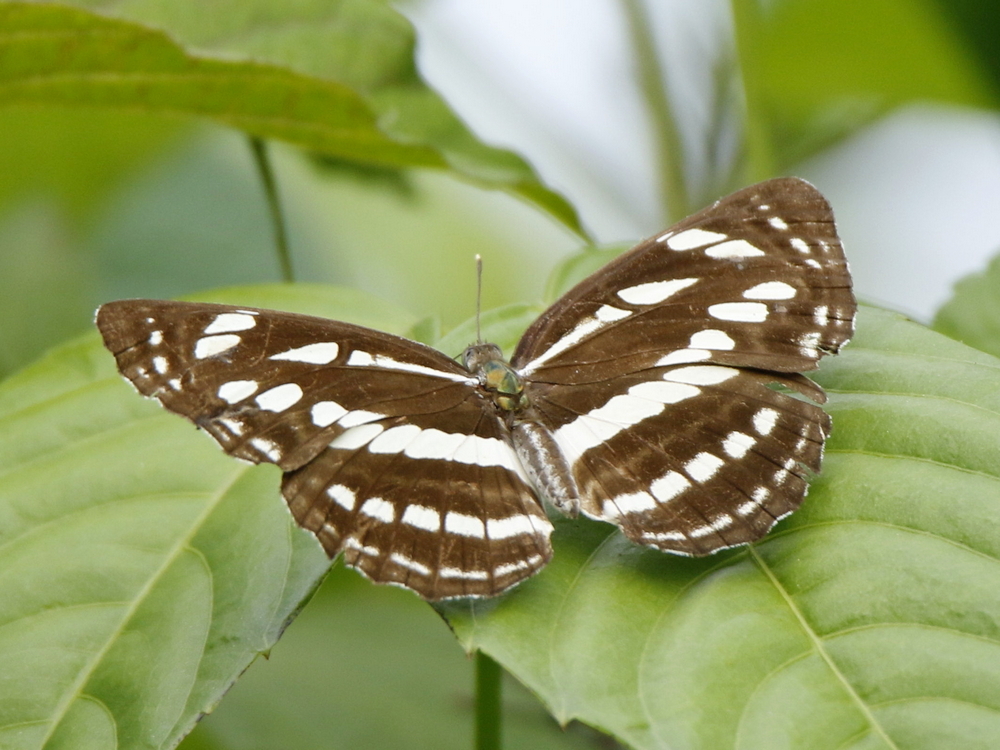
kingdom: Animalia
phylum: Arthropoda
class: Insecta
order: Lepidoptera
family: Nymphalidae
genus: Phaedyma
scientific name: Phaedyma columella
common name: Short banded sailer
